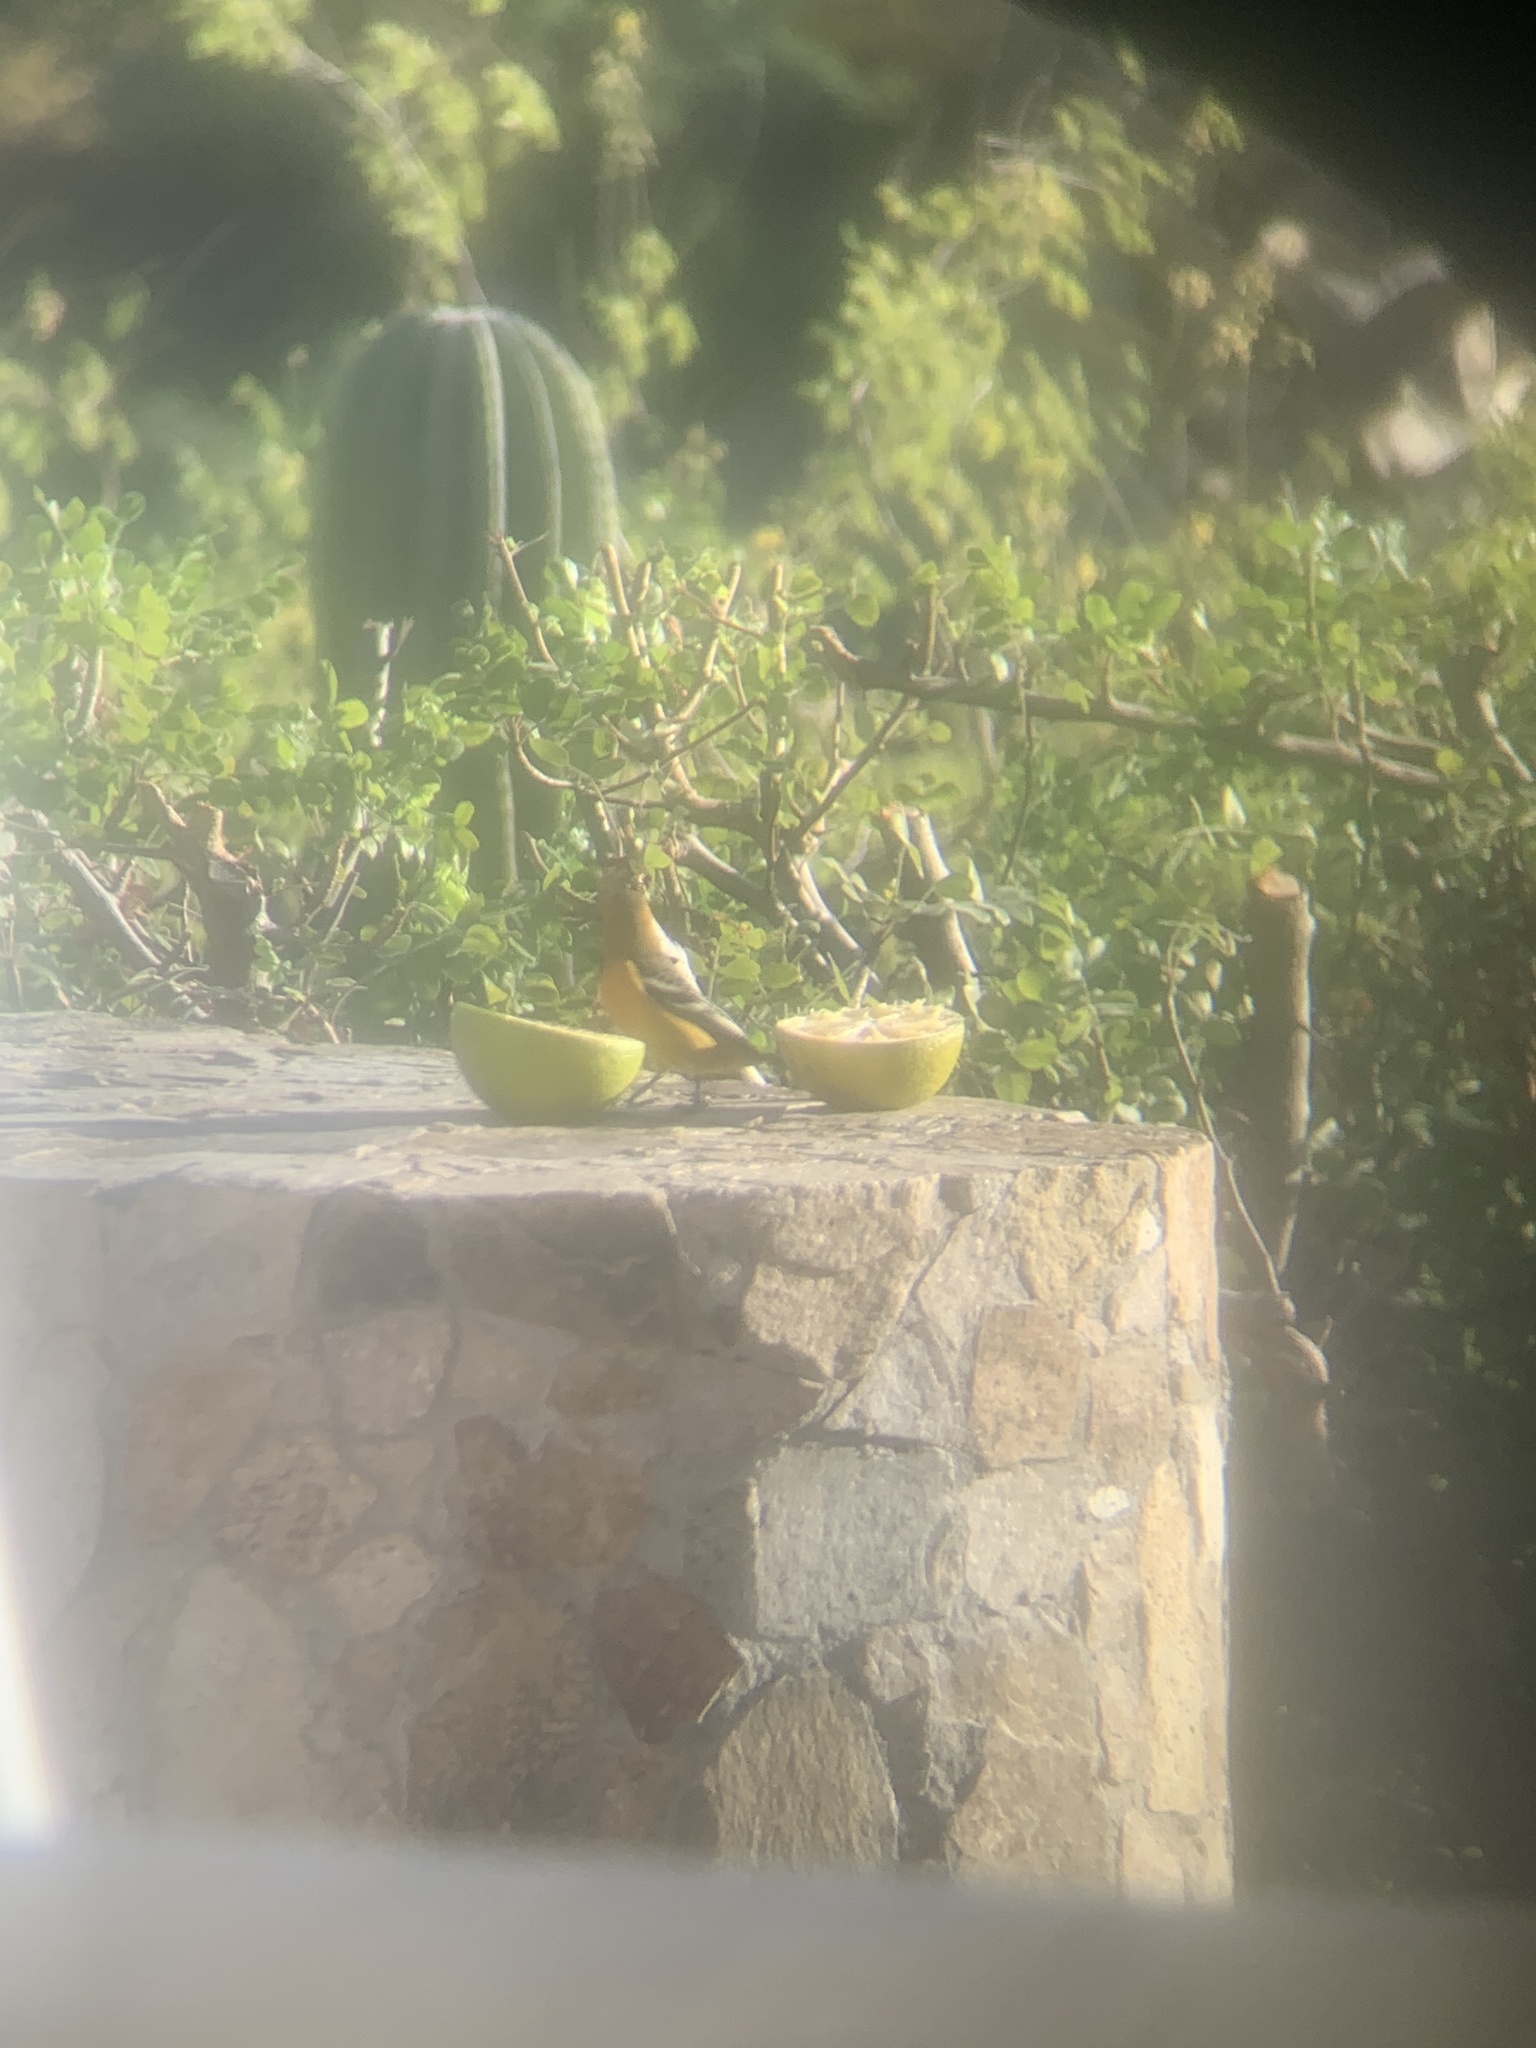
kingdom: Animalia
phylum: Chordata
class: Aves
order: Passeriformes
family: Icteridae
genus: Icterus
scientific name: Icterus cucullatus
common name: Hooded oriole
